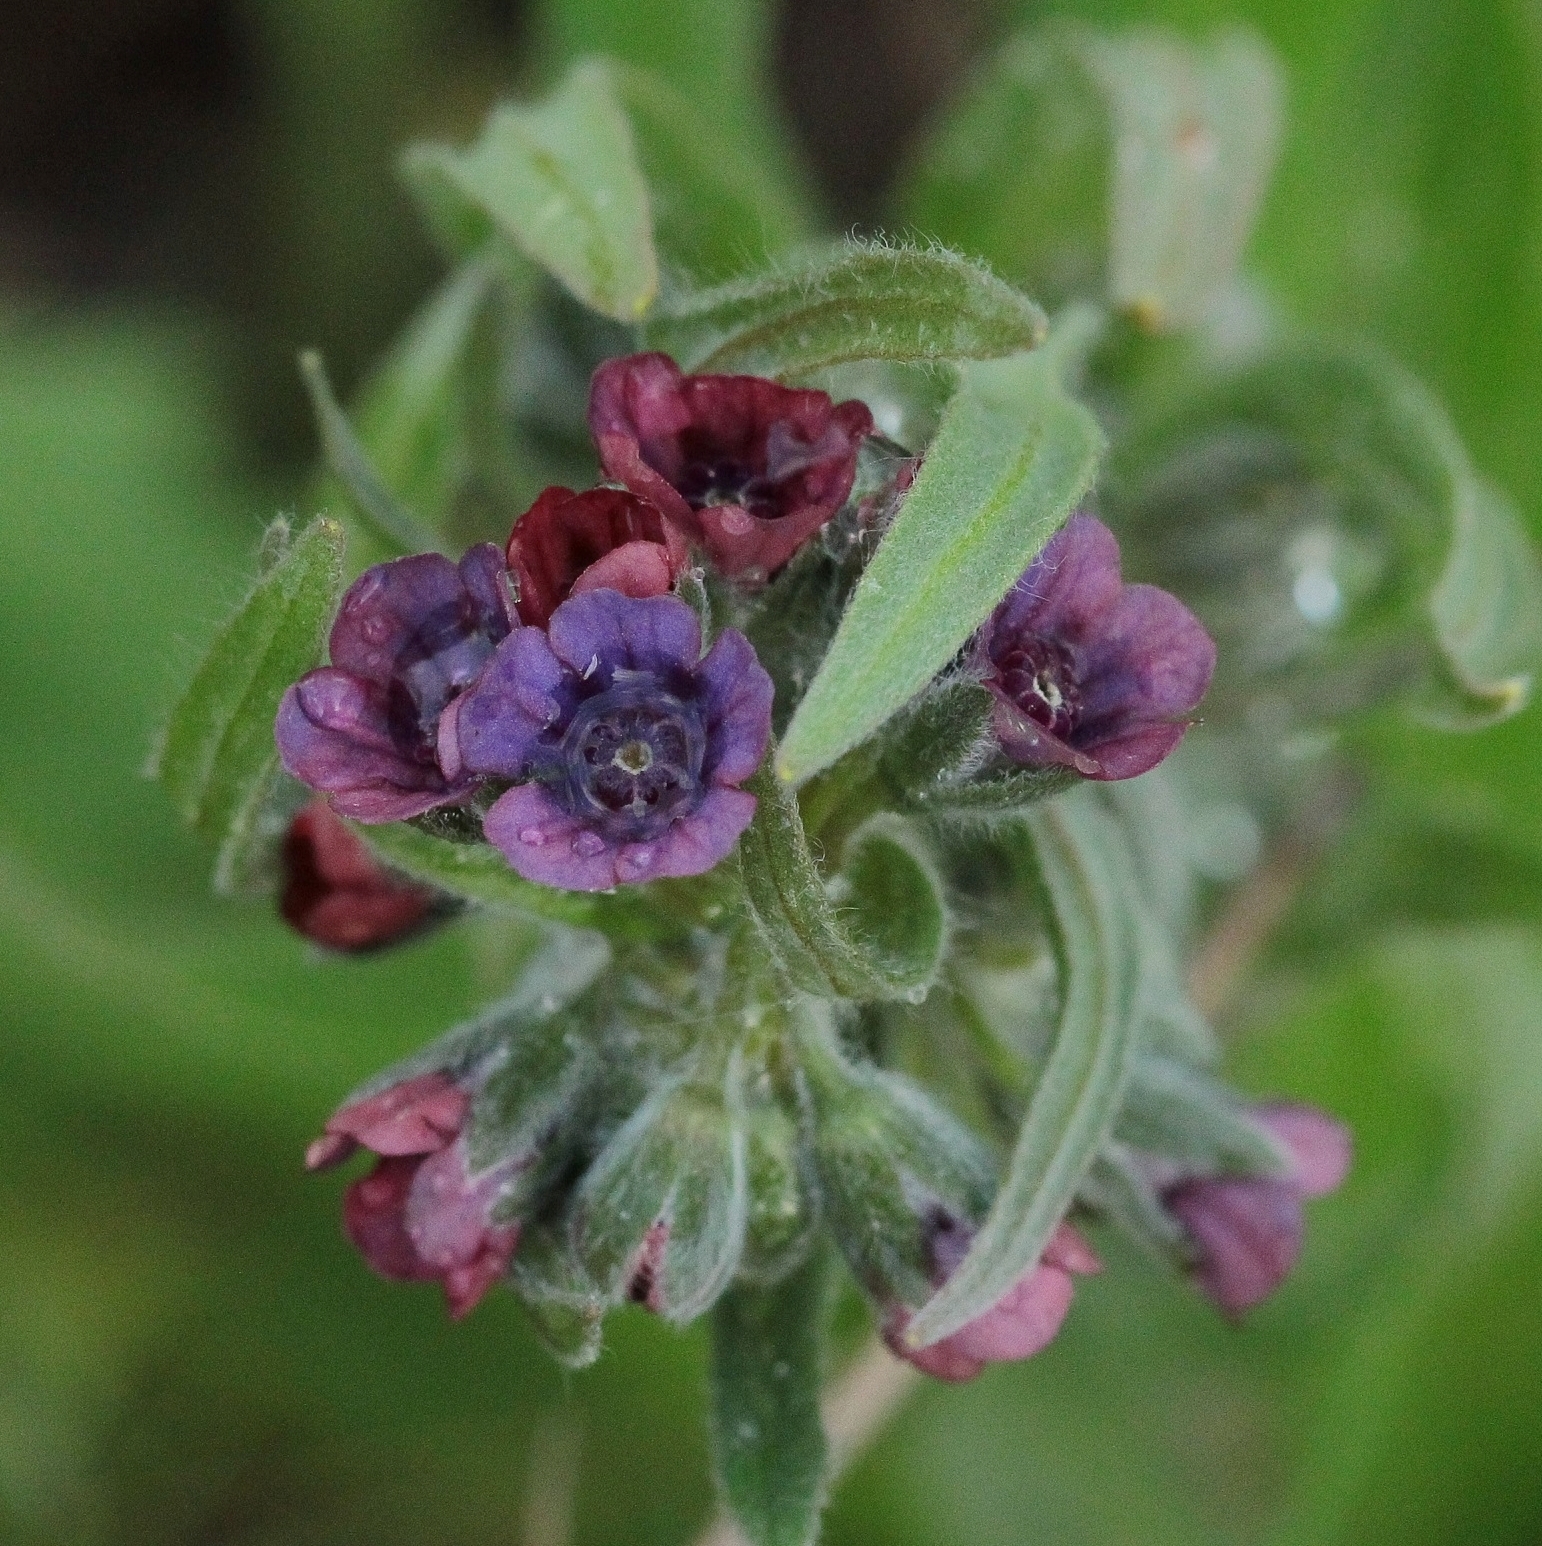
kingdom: Plantae
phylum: Tracheophyta
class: Magnoliopsida
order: Boraginales
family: Boraginaceae
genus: Cynoglossum
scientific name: Cynoglossum officinale
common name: Hound's-tongue
